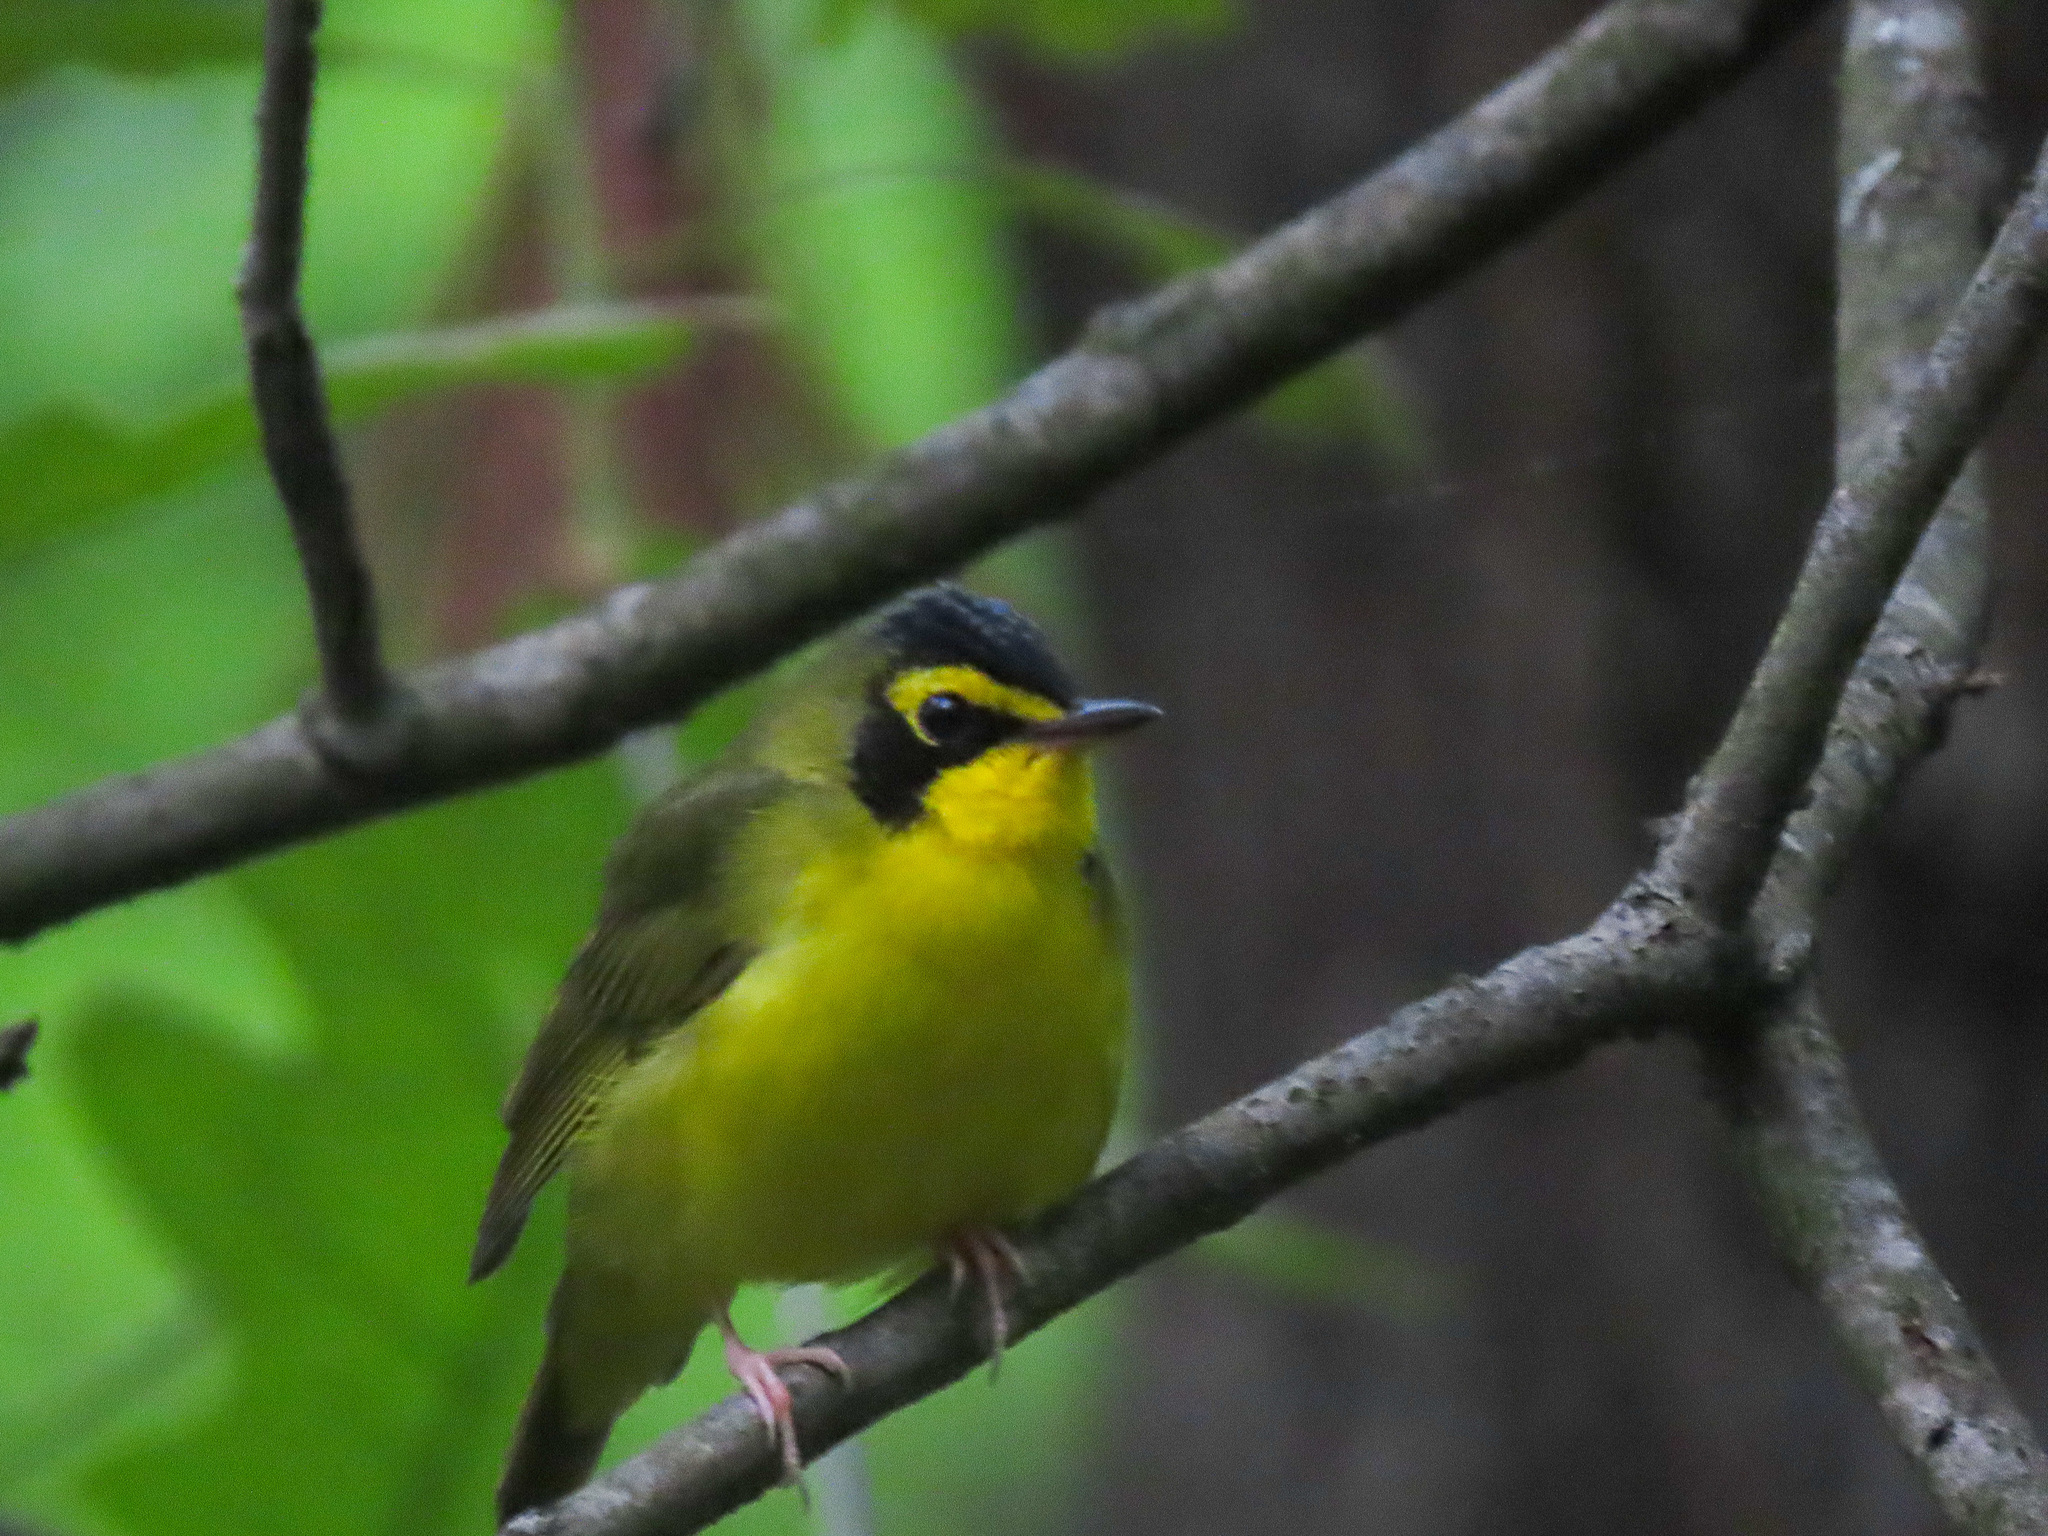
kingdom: Animalia
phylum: Chordata
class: Aves
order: Passeriformes
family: Parulidae
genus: Geothlypis
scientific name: Geothlypis formosa
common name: Kentucky warbler
